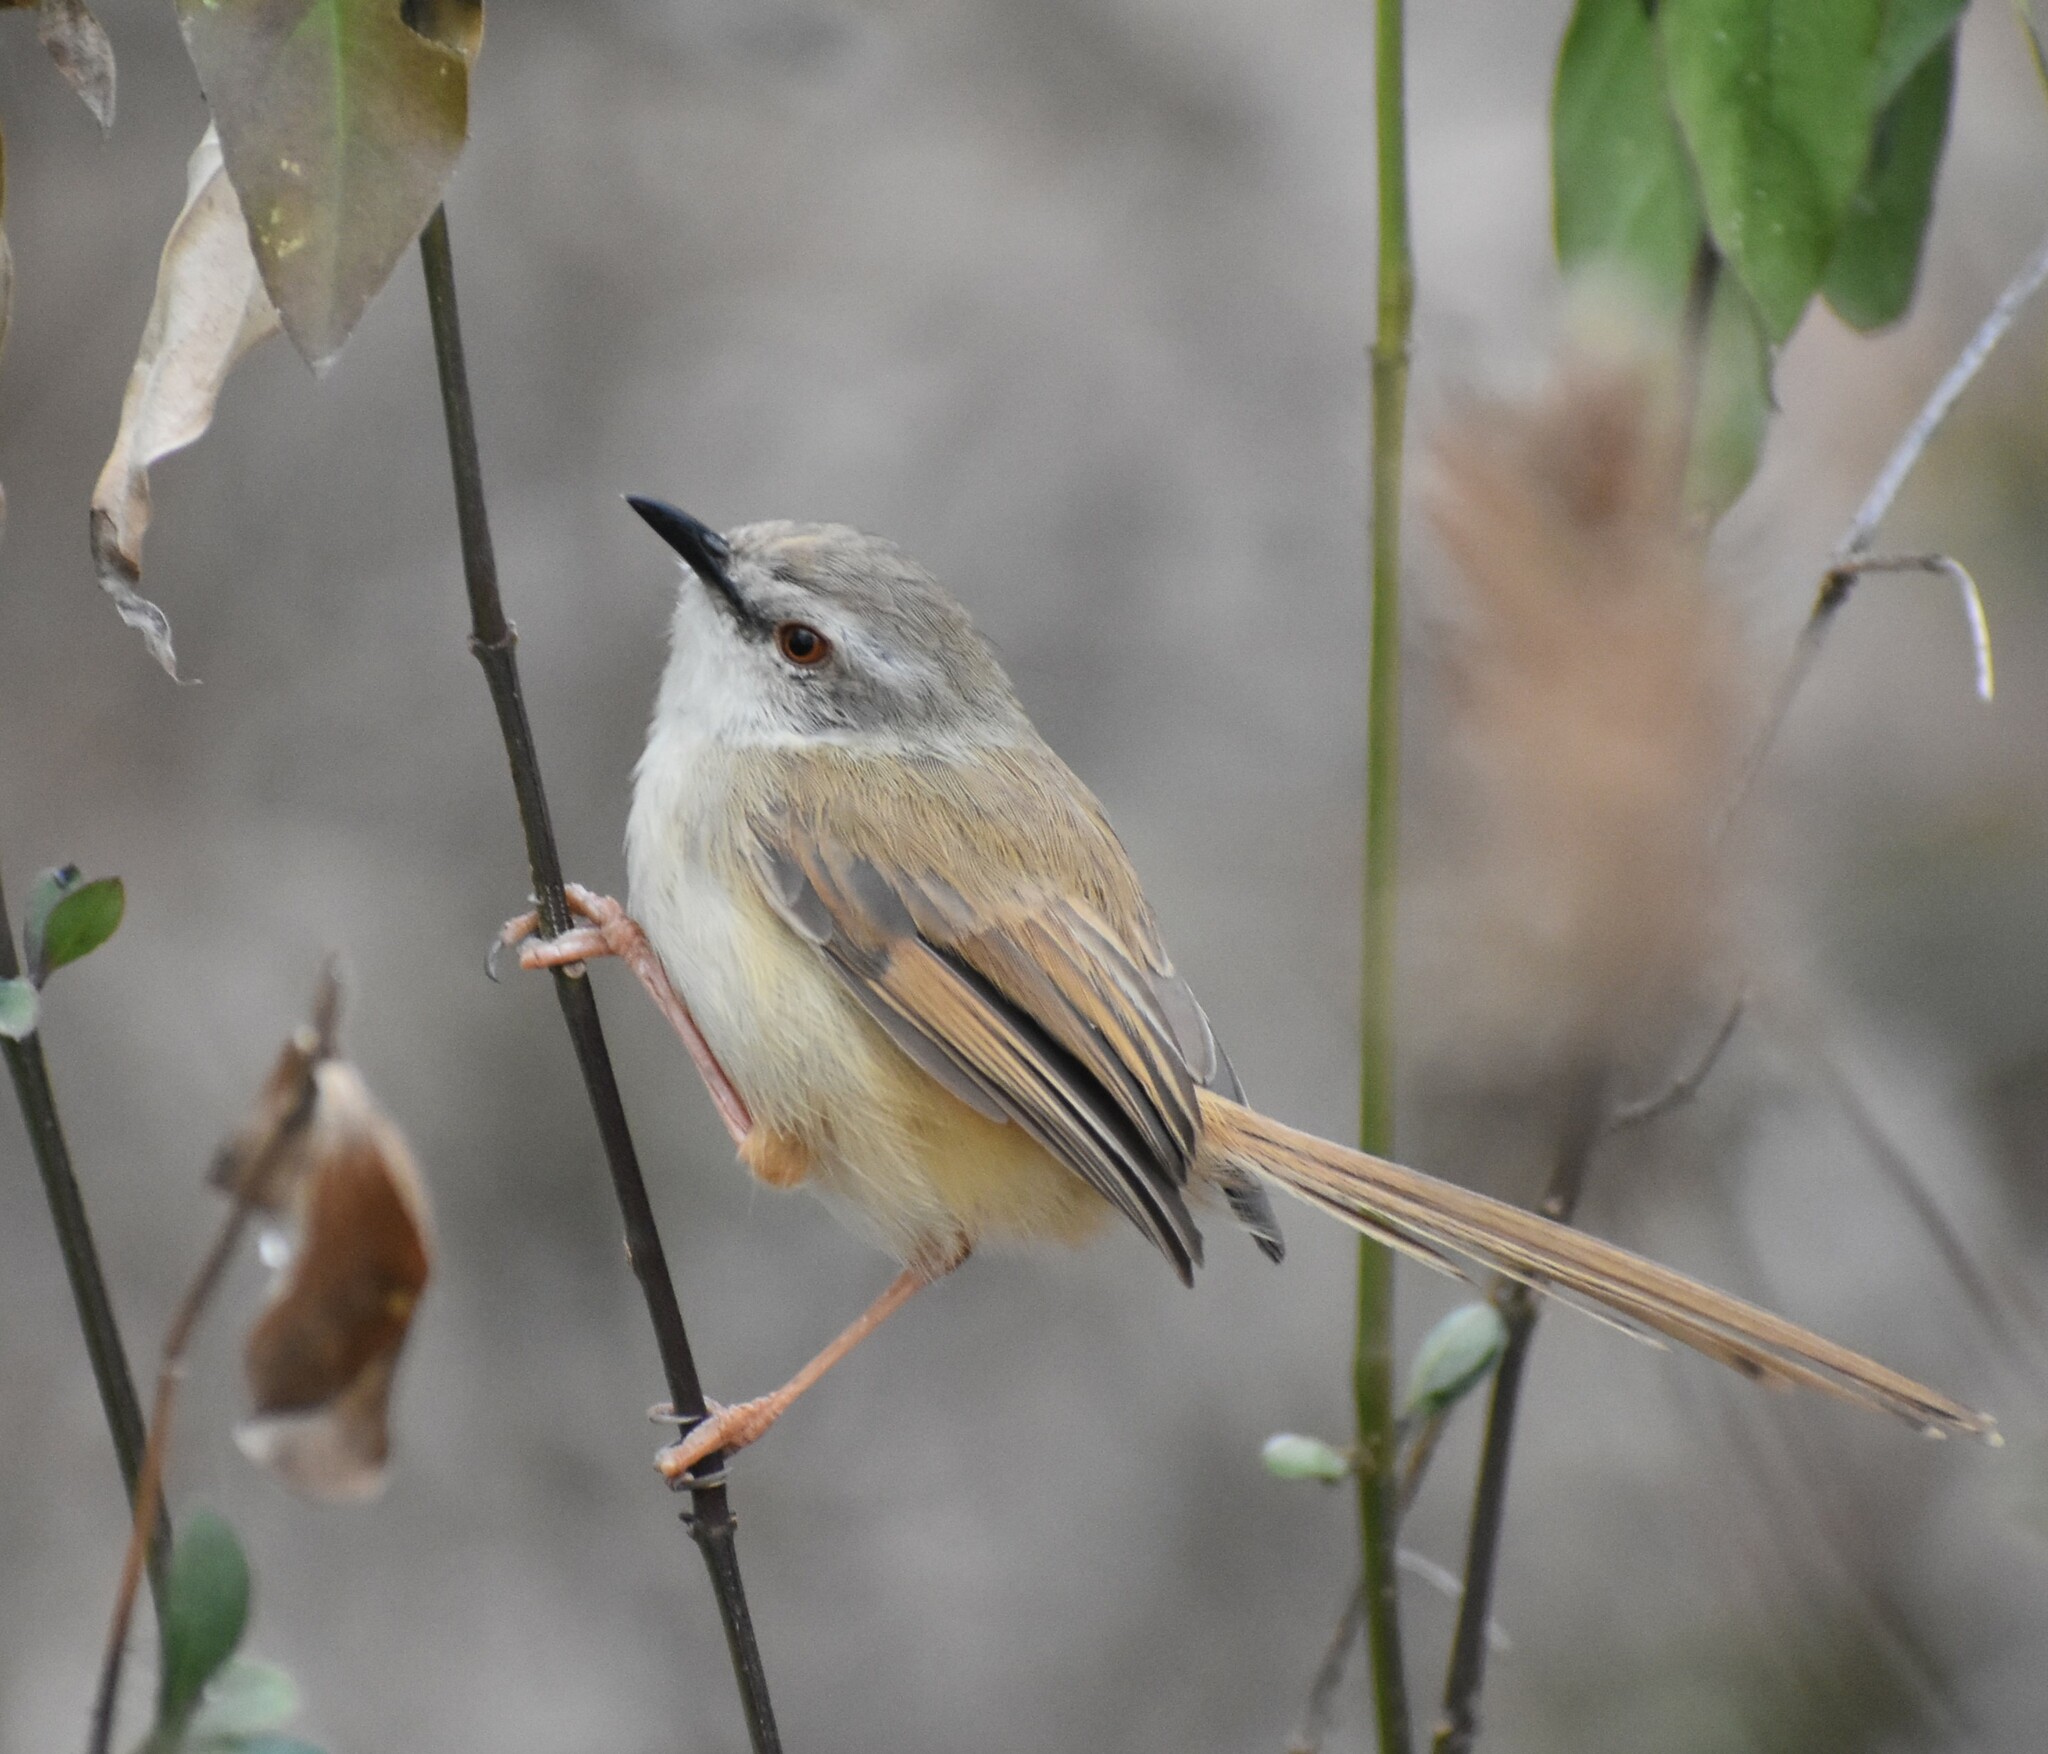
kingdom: Animalia
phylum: Chordata
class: Aves
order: Passeriformes
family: Cisticolidae
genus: Prinia
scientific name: Prinia subflava
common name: Tawny-flanked prinia
